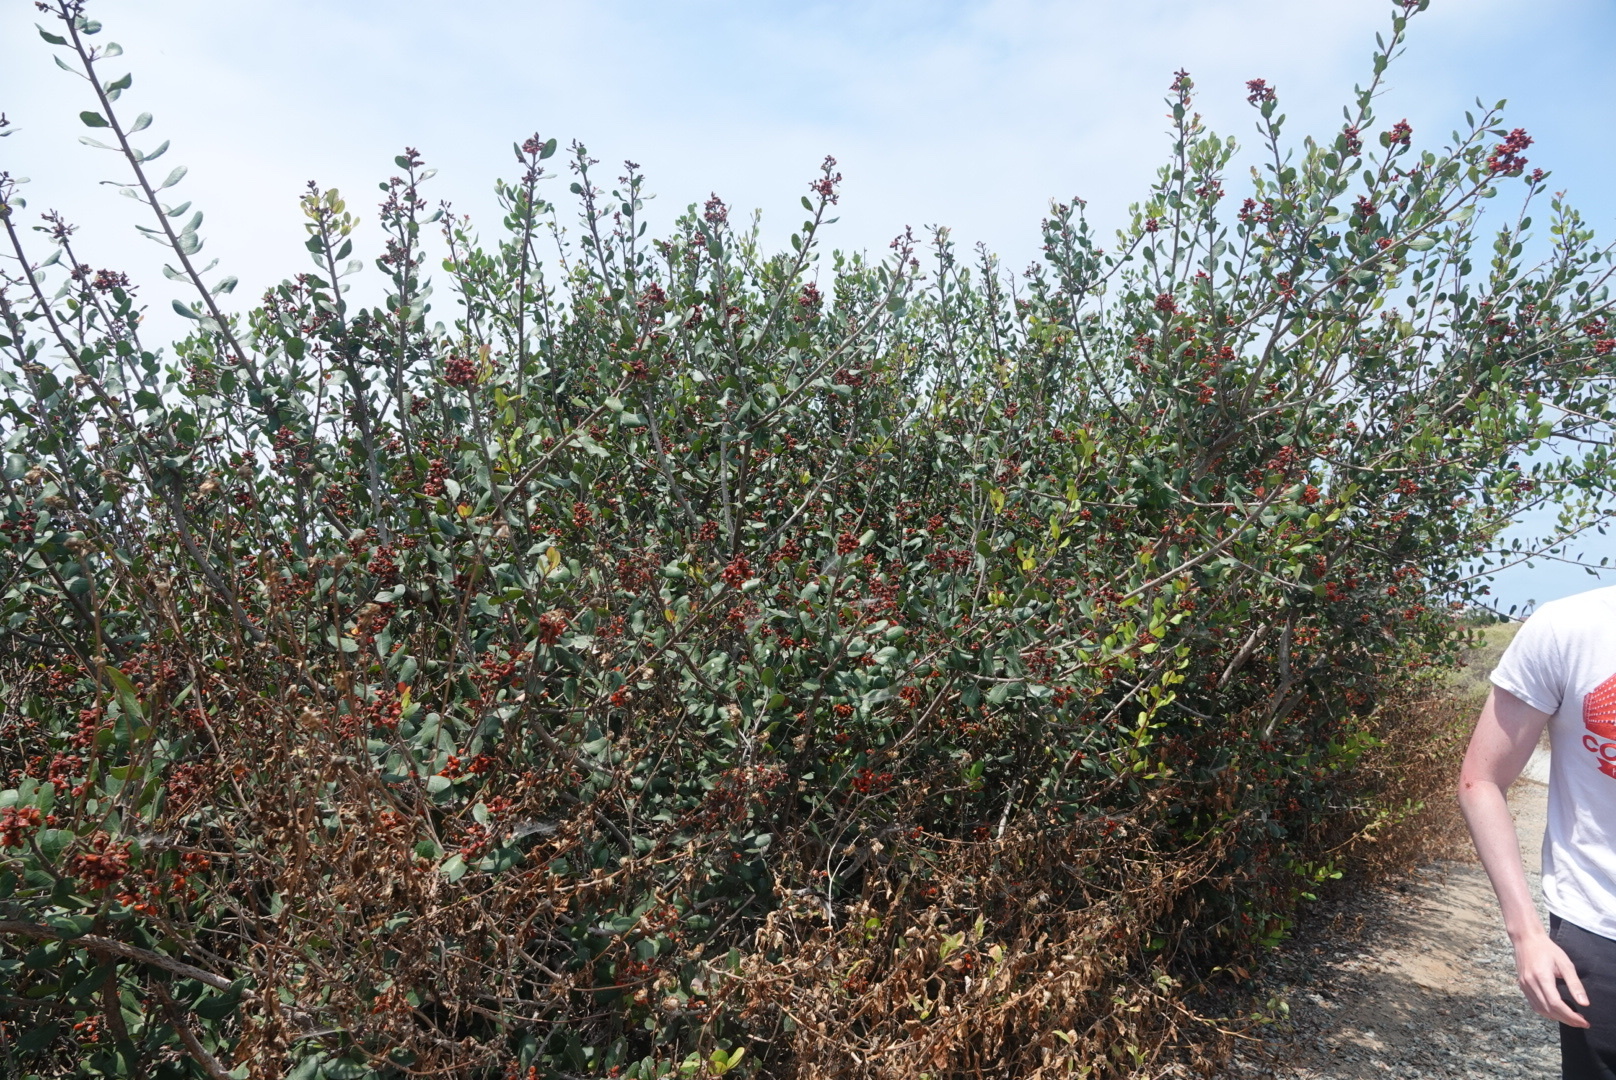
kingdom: Plantae
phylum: Tracheophyta
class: Magnoliopsida
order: Sapindales
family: Anacardiaceae
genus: Rhus
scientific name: Rhus integrifolia
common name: Lemonade sumac
